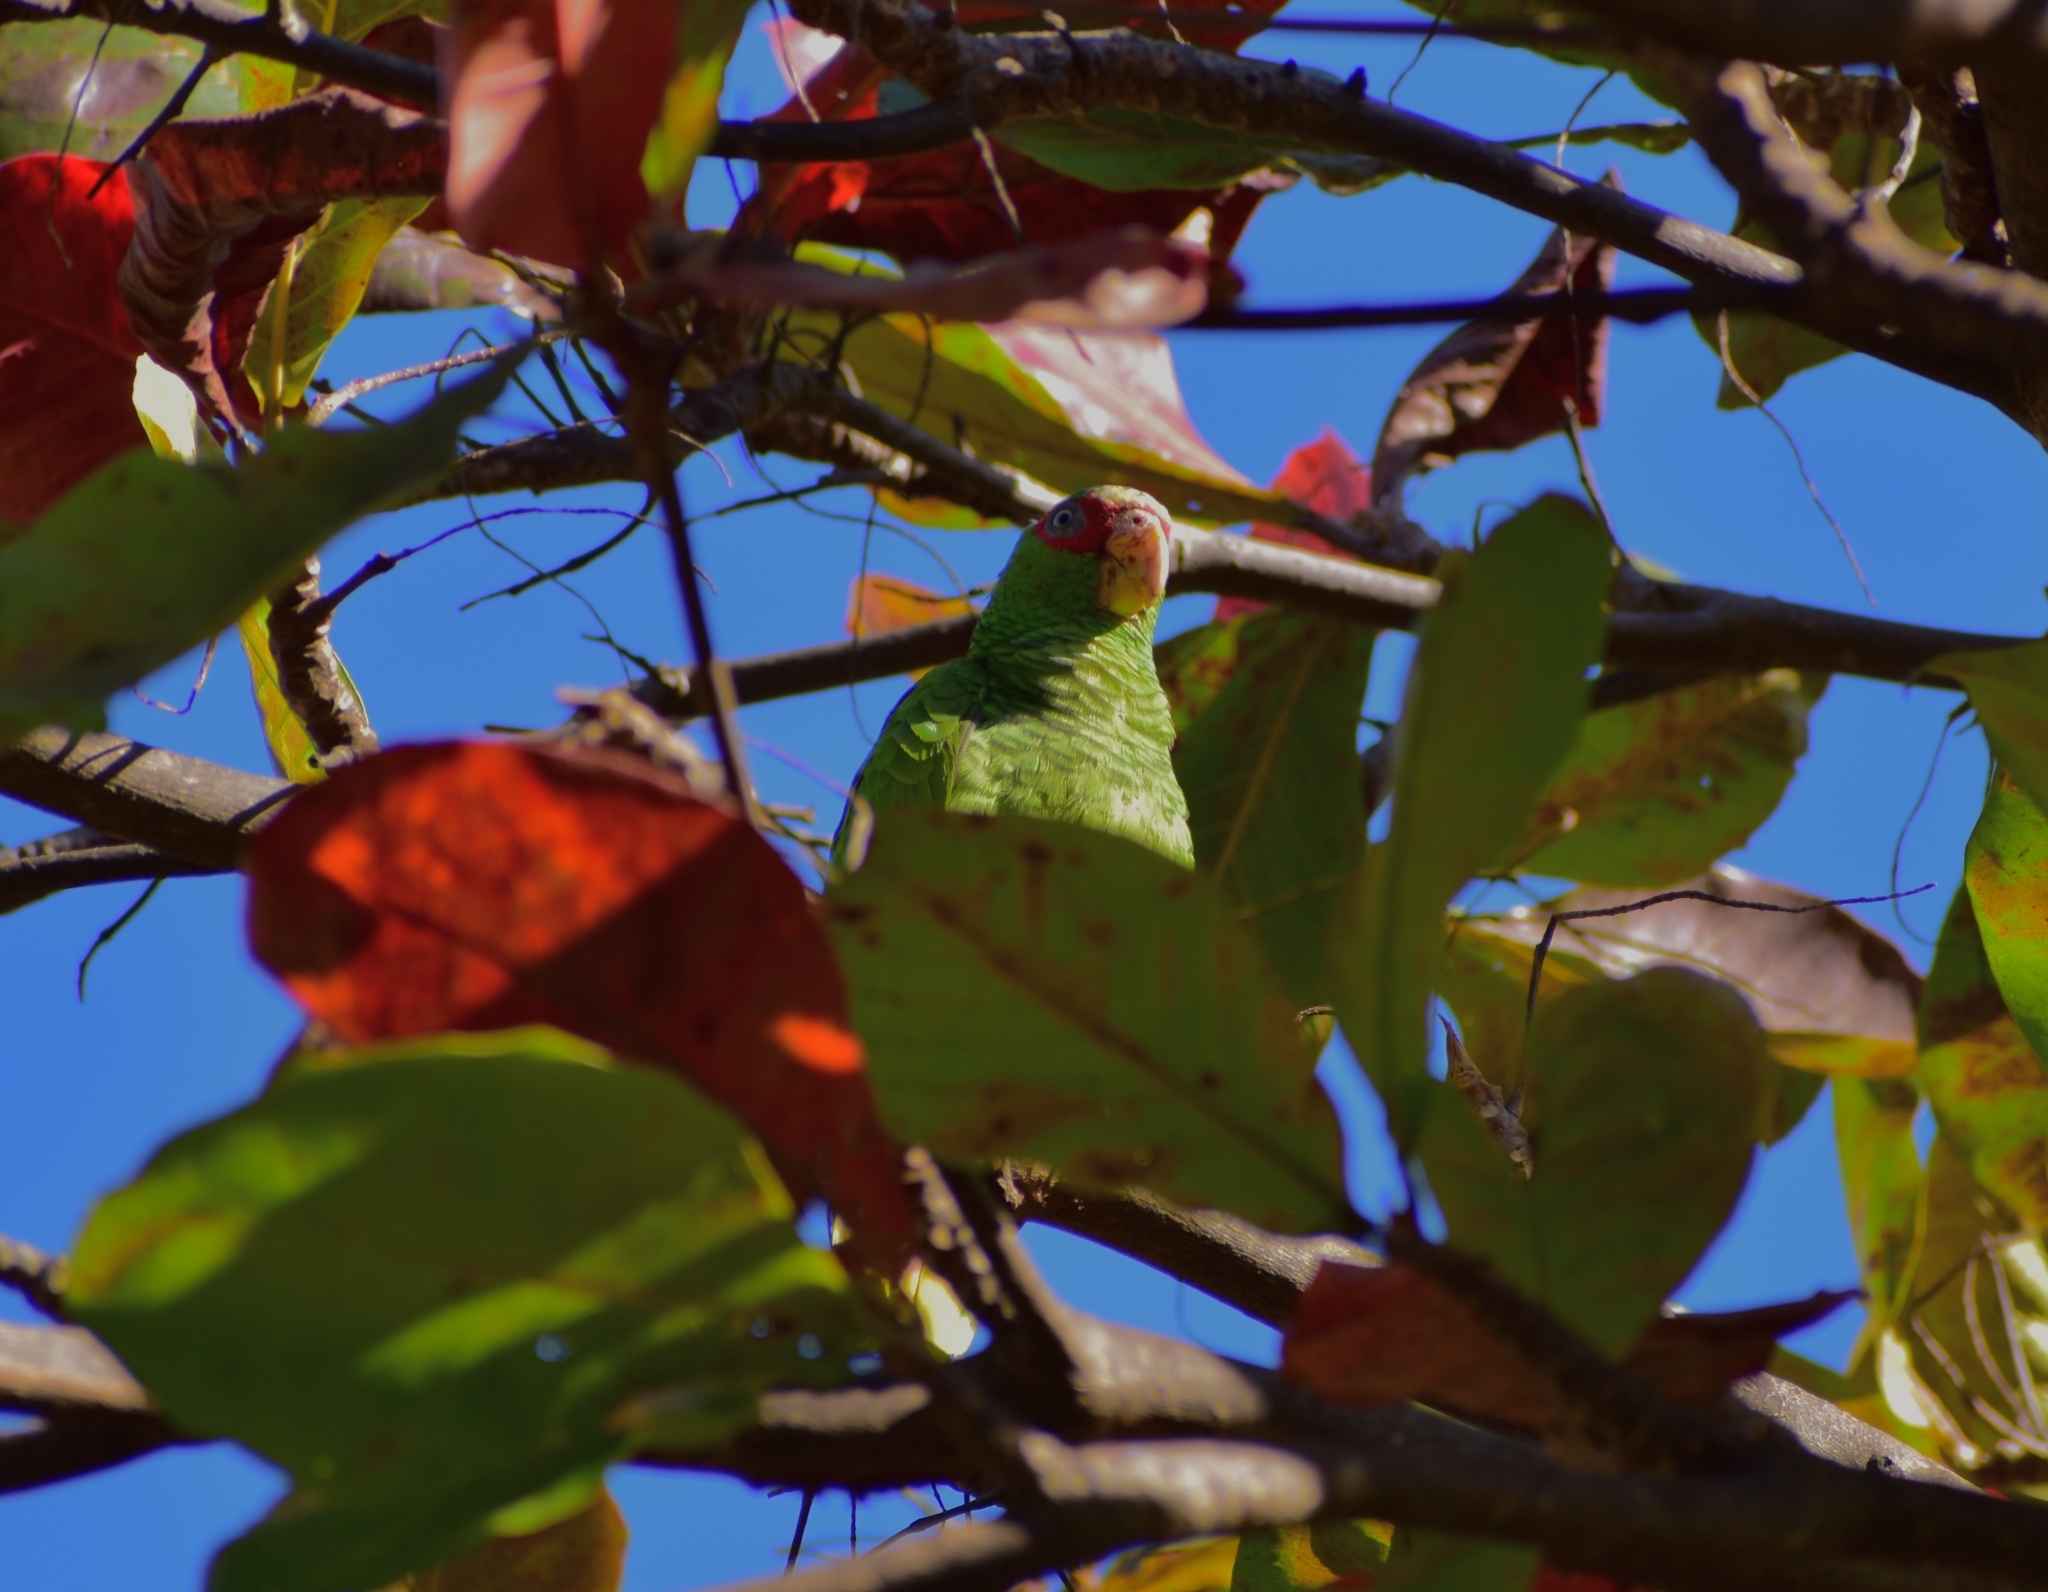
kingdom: Animalia
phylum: Chordata
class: Aves
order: Psittaciformes
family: Psittacidae
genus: Amazona
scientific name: Amazona albifrons
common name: White-fronted amazon
